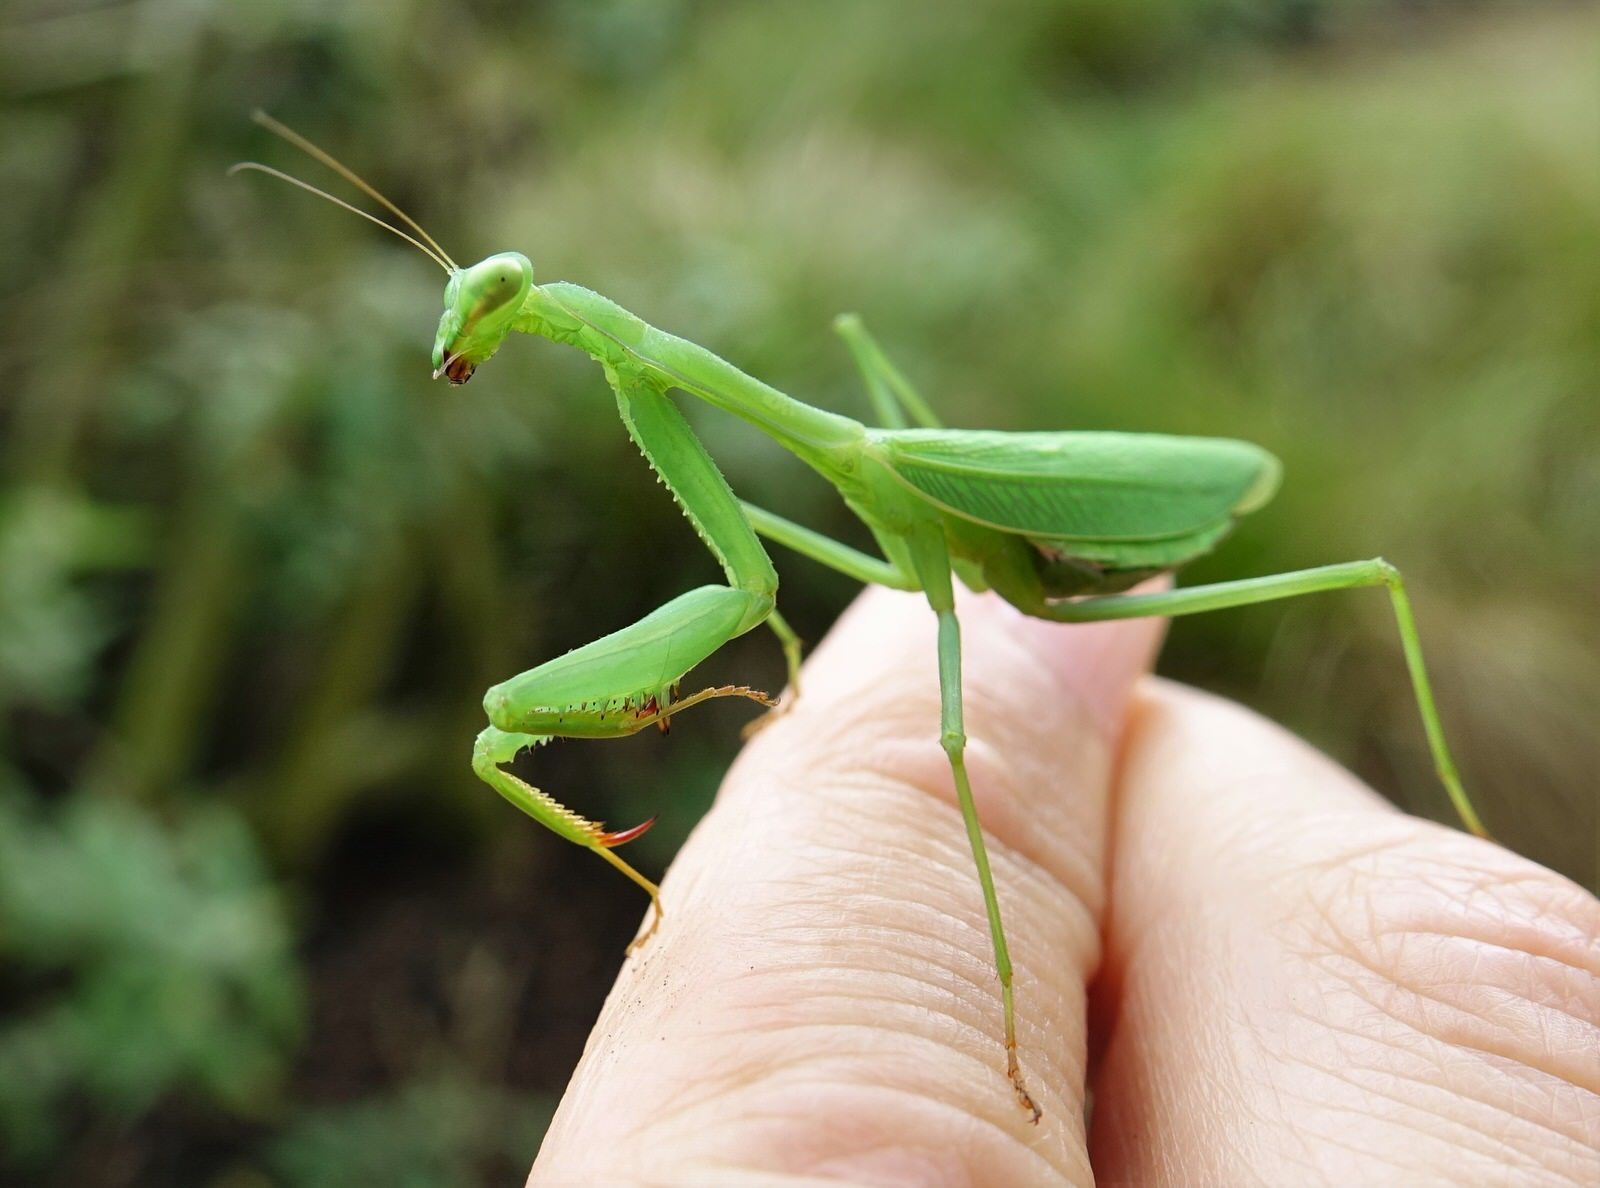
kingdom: Animalia
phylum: Arthropoda
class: Insecta
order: Mantodea
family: Miomantidae
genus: Miomantis
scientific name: Miomantis caffra
